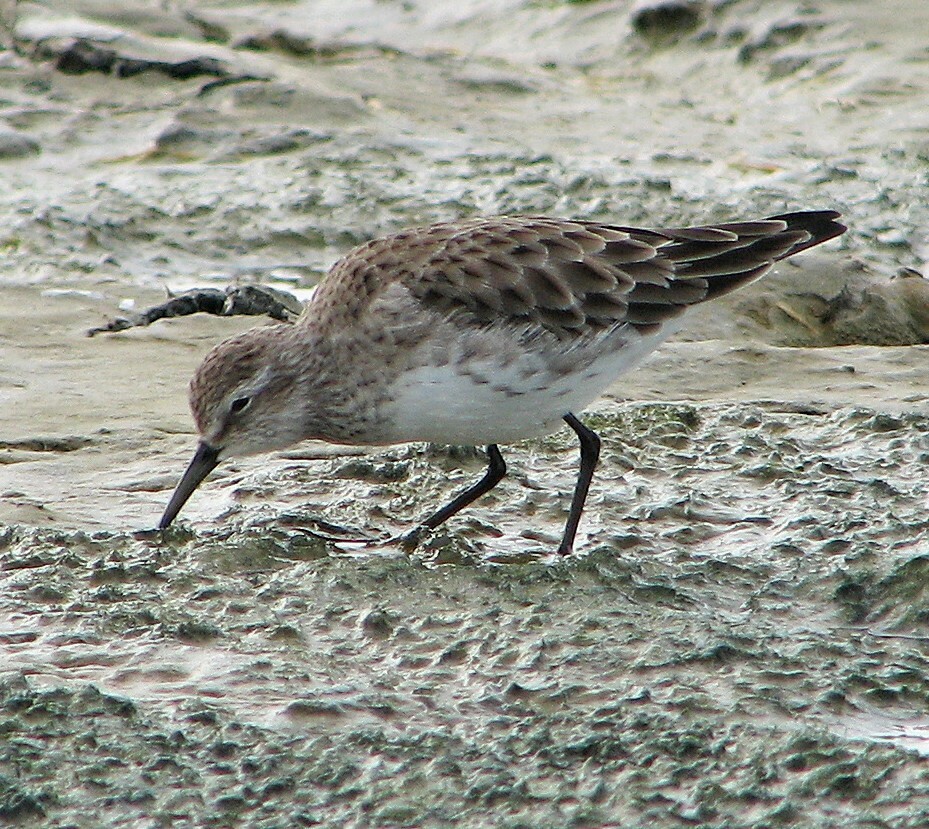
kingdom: Animalia
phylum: Chordata
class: Aves
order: Charadriiformes
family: Scolopacidae
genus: Calidris
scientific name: Calidris fuscicollis
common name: White-rumped sandpiper
